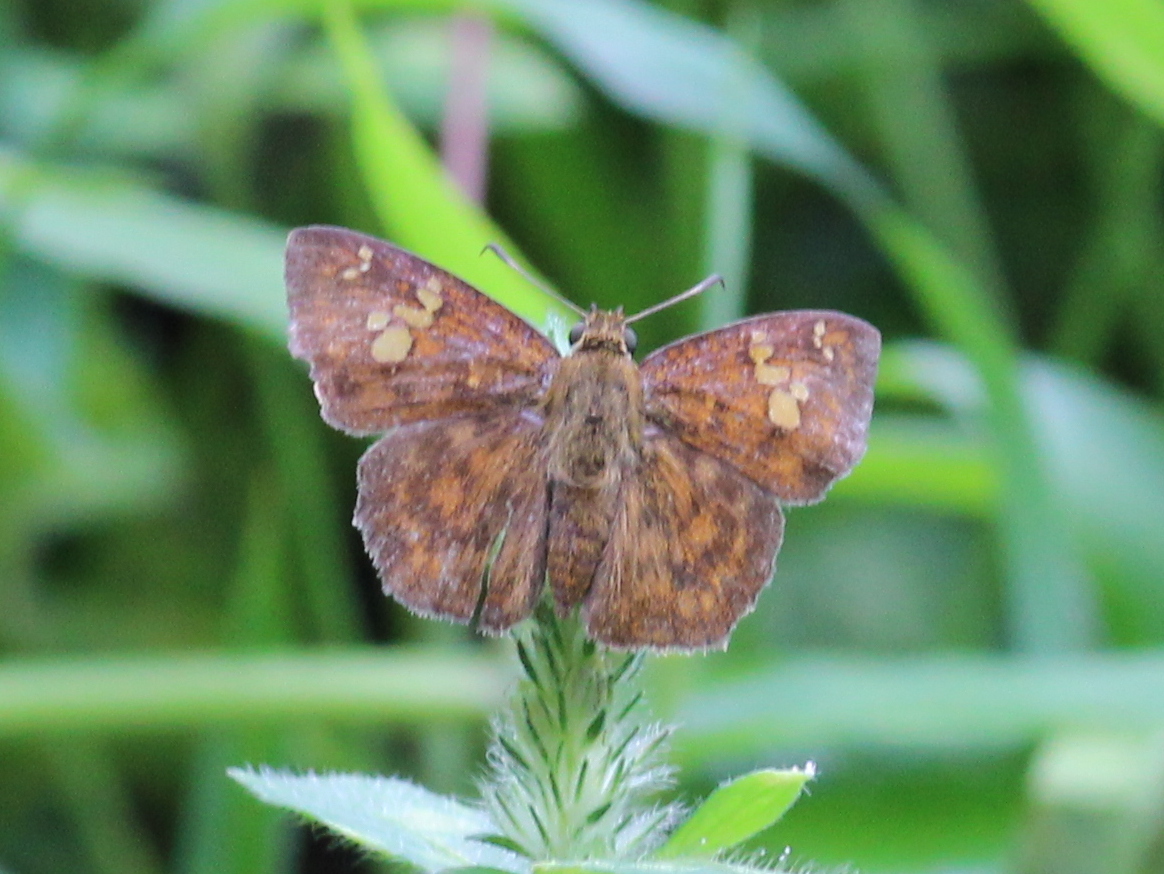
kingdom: Animalia
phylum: Arthropoda
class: Insecta
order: Lepidoptera
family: Hesperiidae
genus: Pseudocoladenia
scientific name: Pseudocoladenia dan
